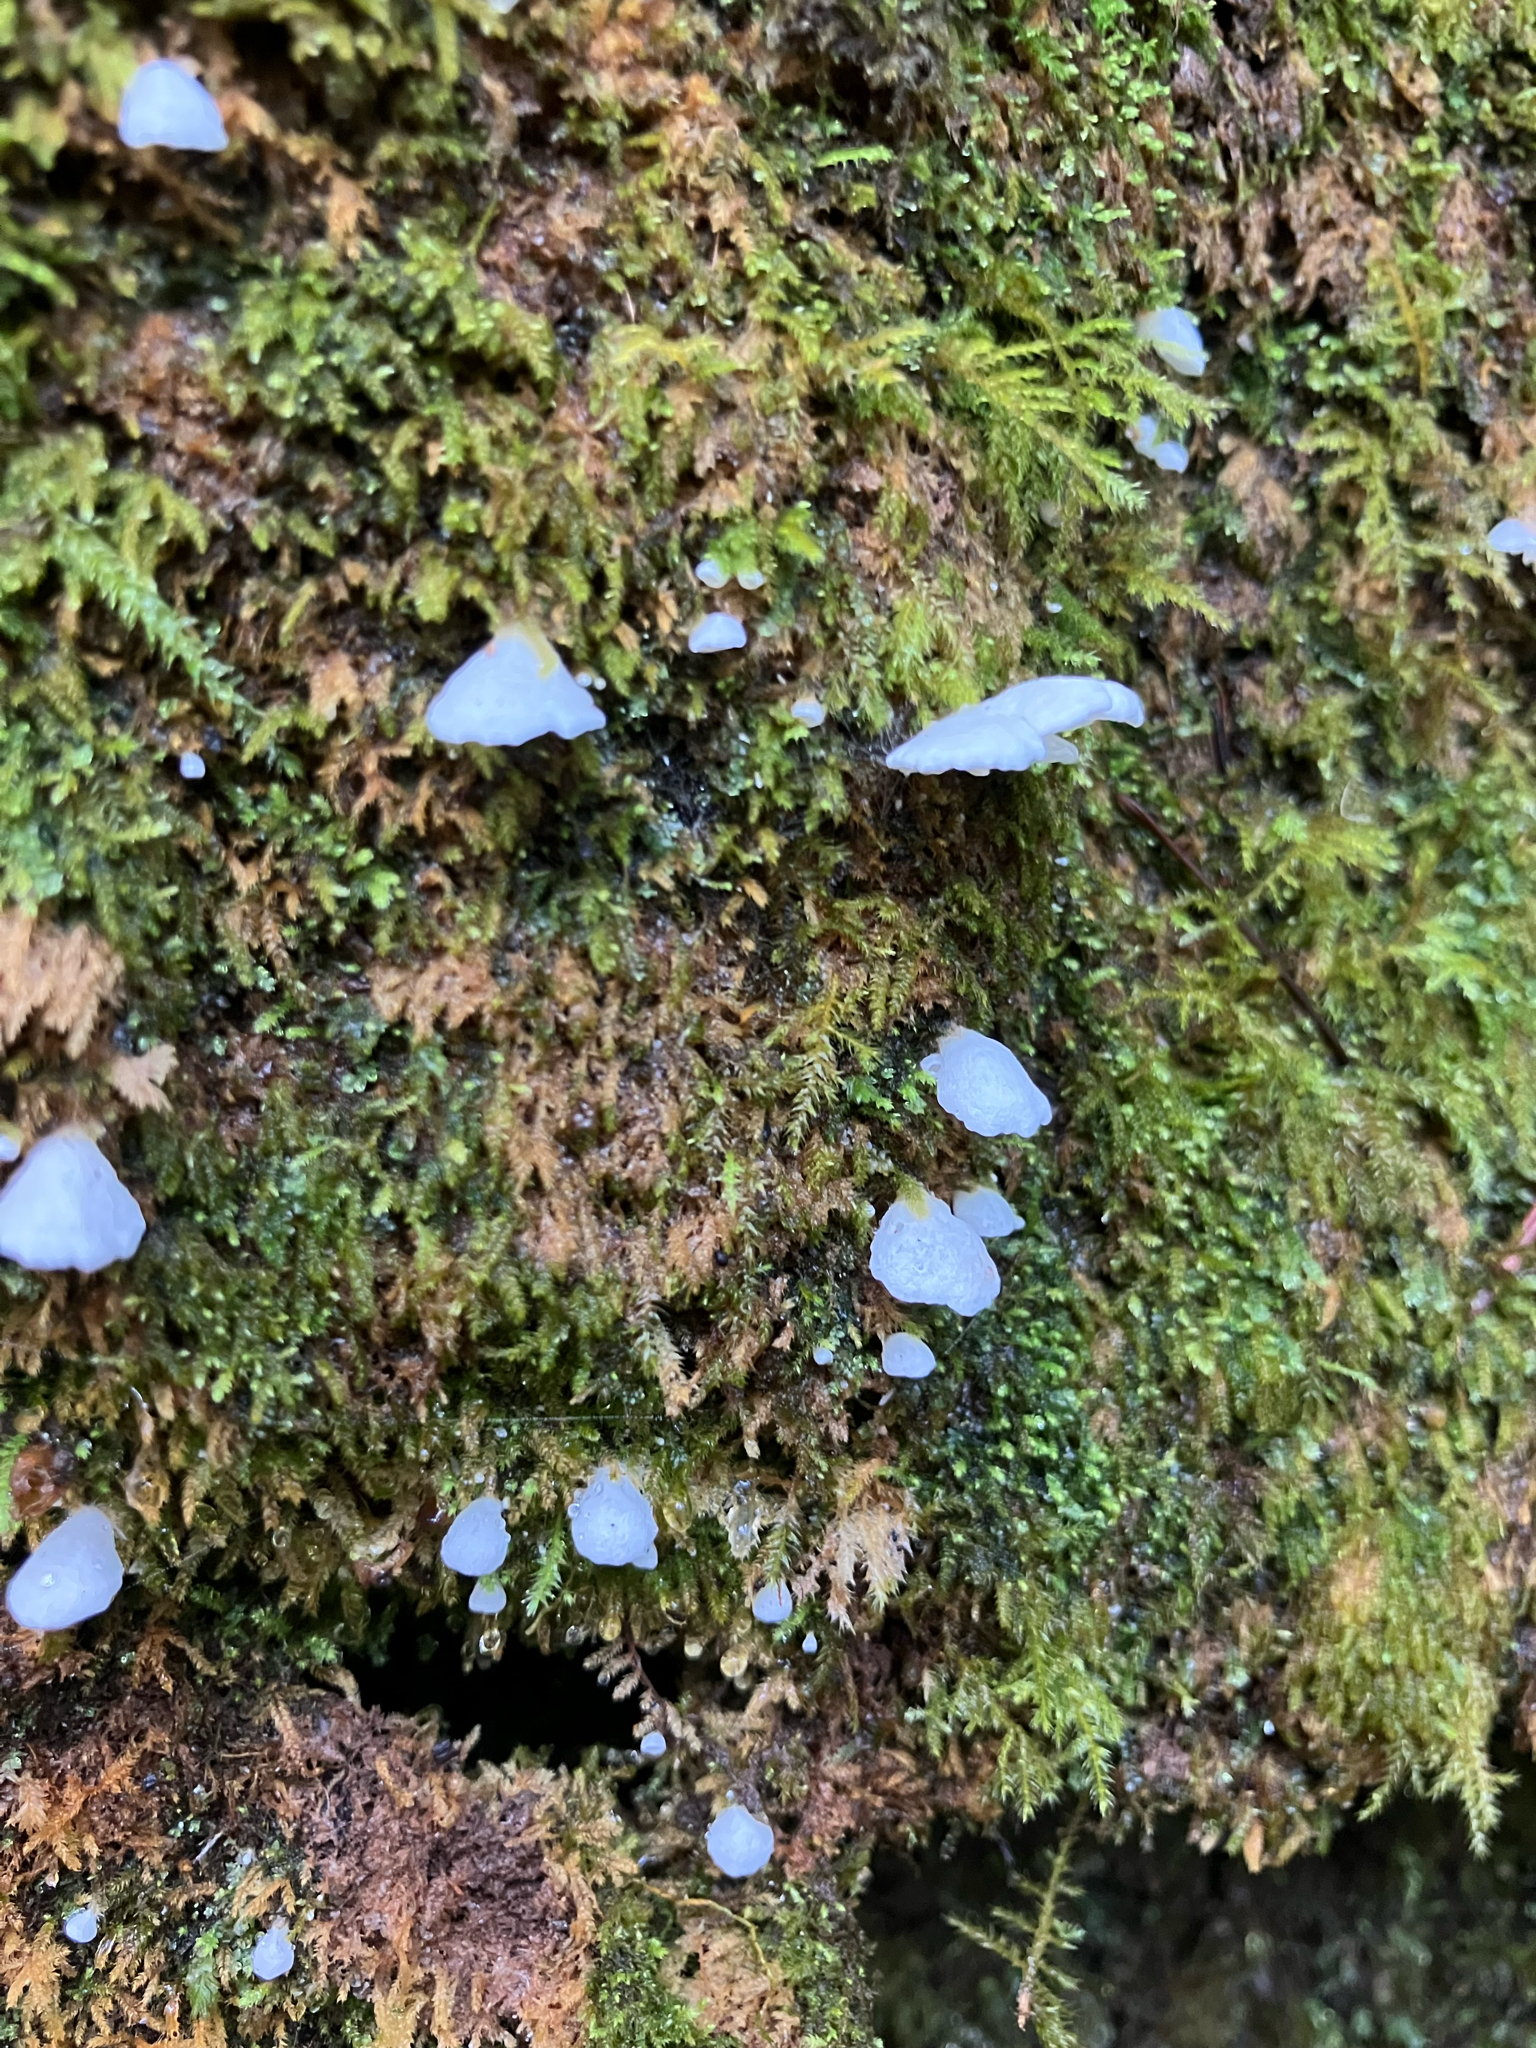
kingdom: Fungi
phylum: Basidiomycota
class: Agaricomycetes
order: Agaricales
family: Tricholomataceae
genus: Rimbachia
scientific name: Rimbachia bryophila
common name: Veined mossear
